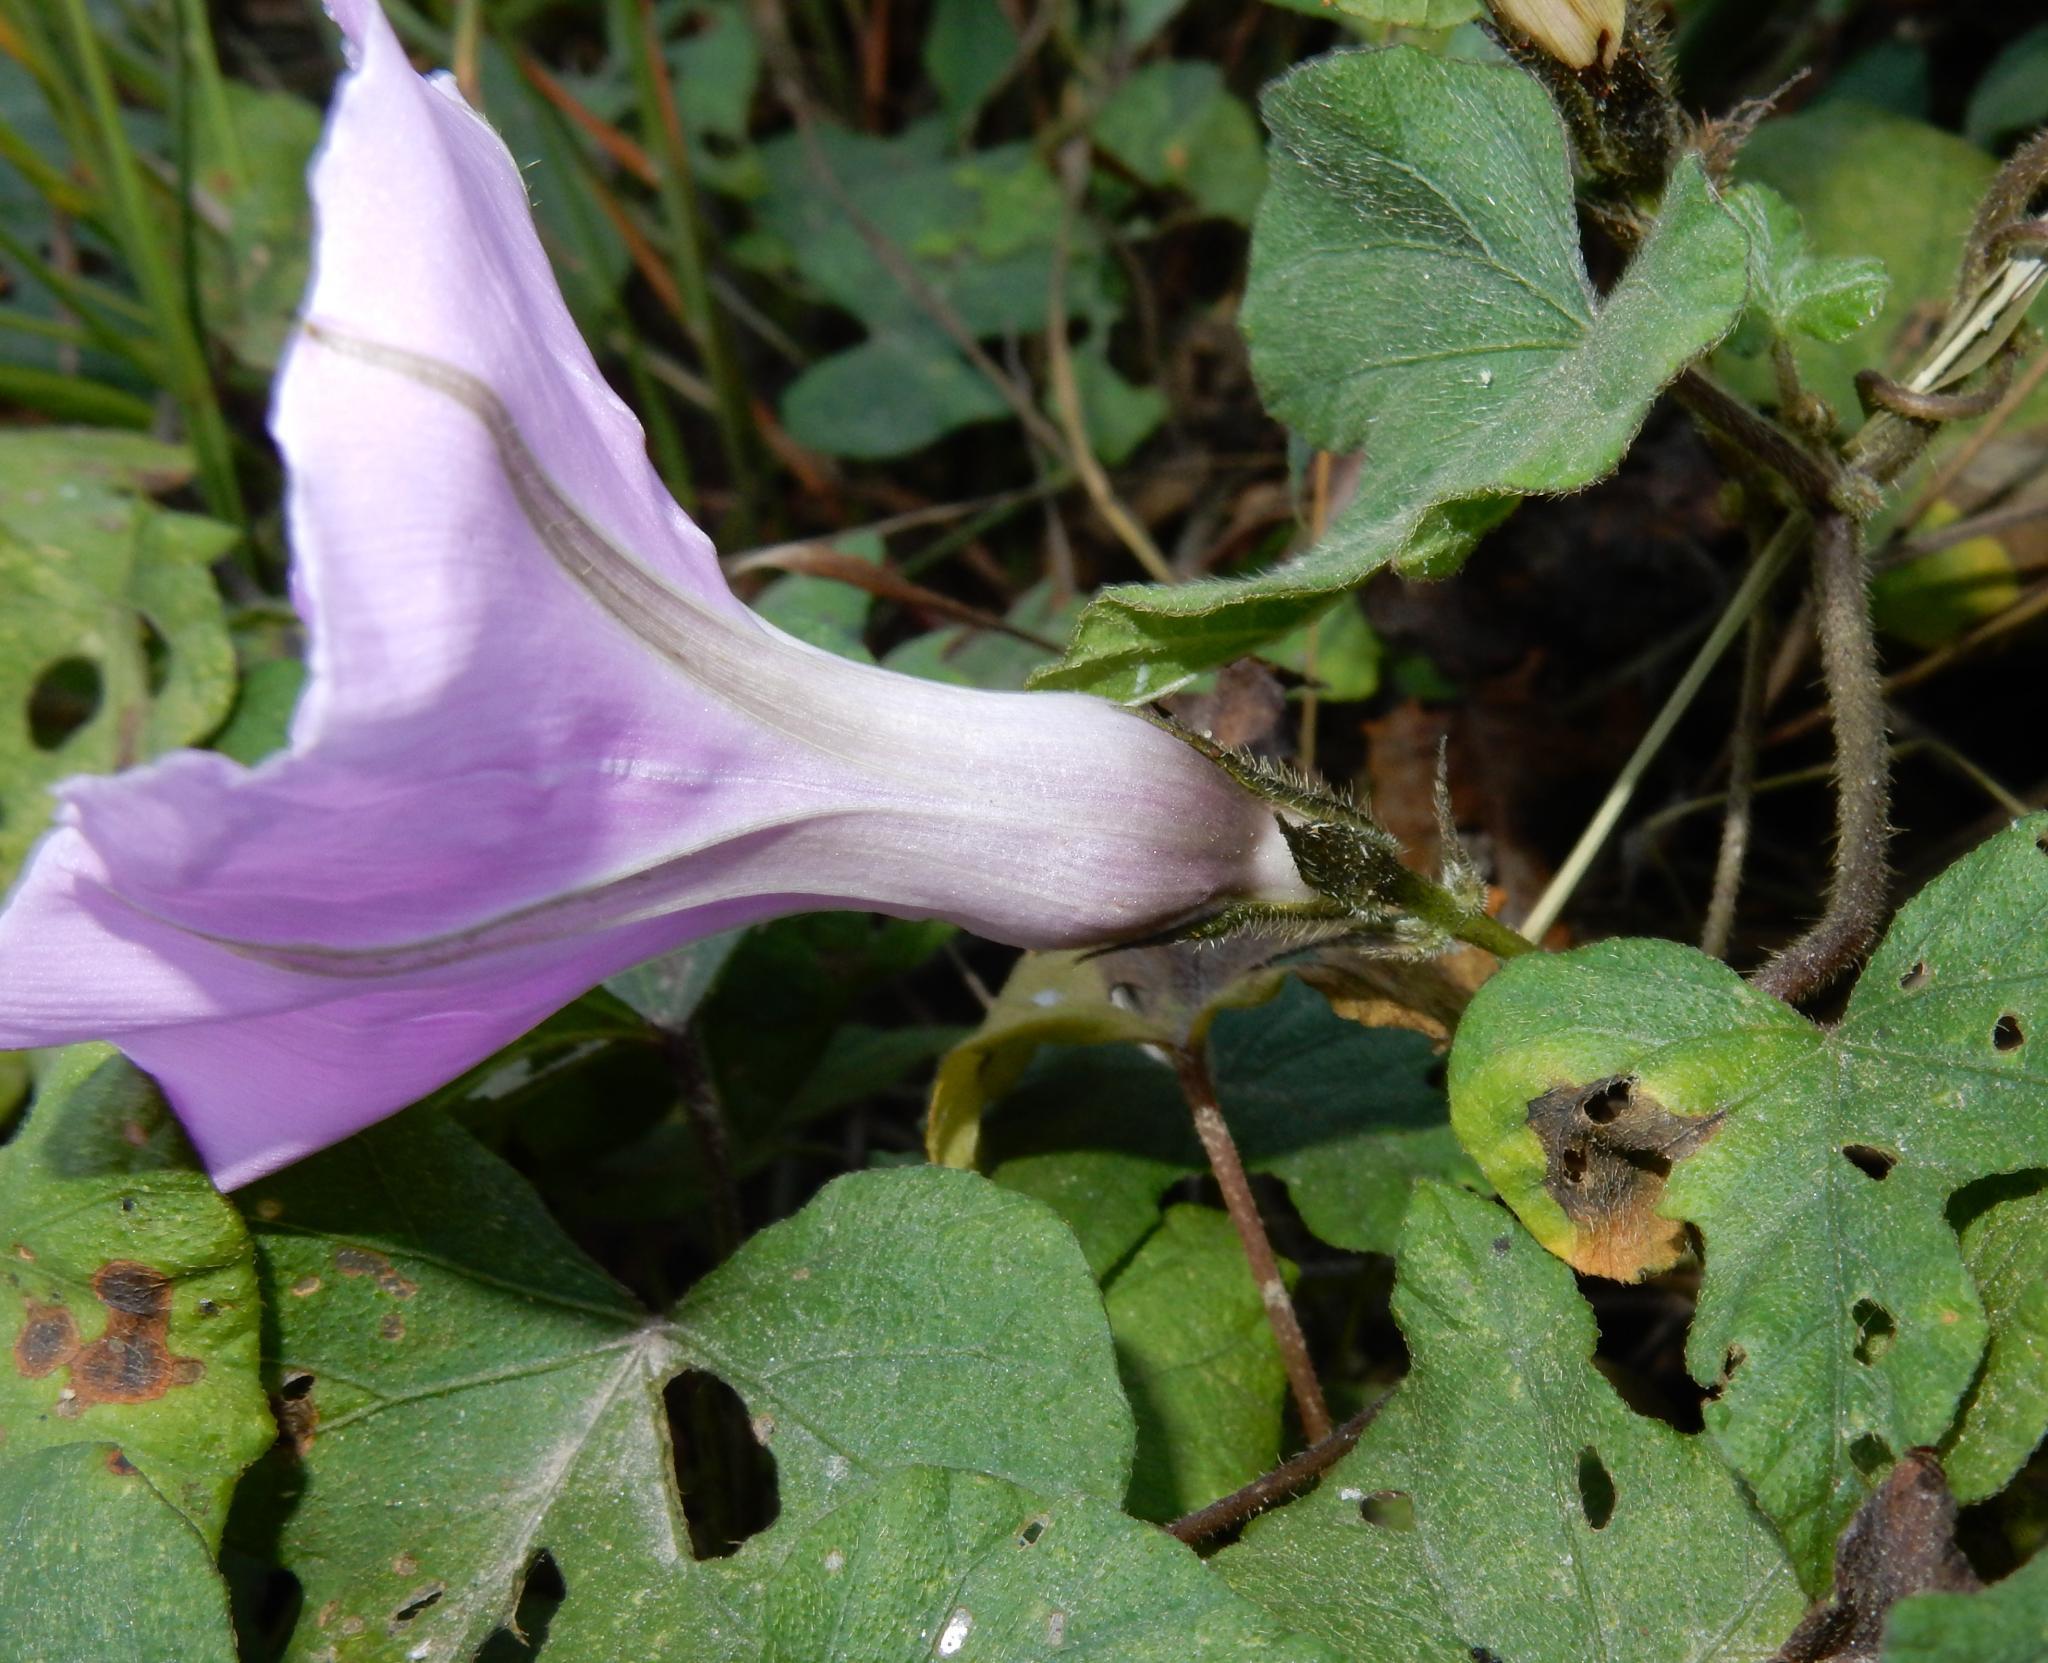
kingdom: Plantae
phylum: Tracheophyta
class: Magnoliopsida
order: Solanales
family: Convolvulaceae
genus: Ipomoea
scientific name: Ipomoea ficifolia
